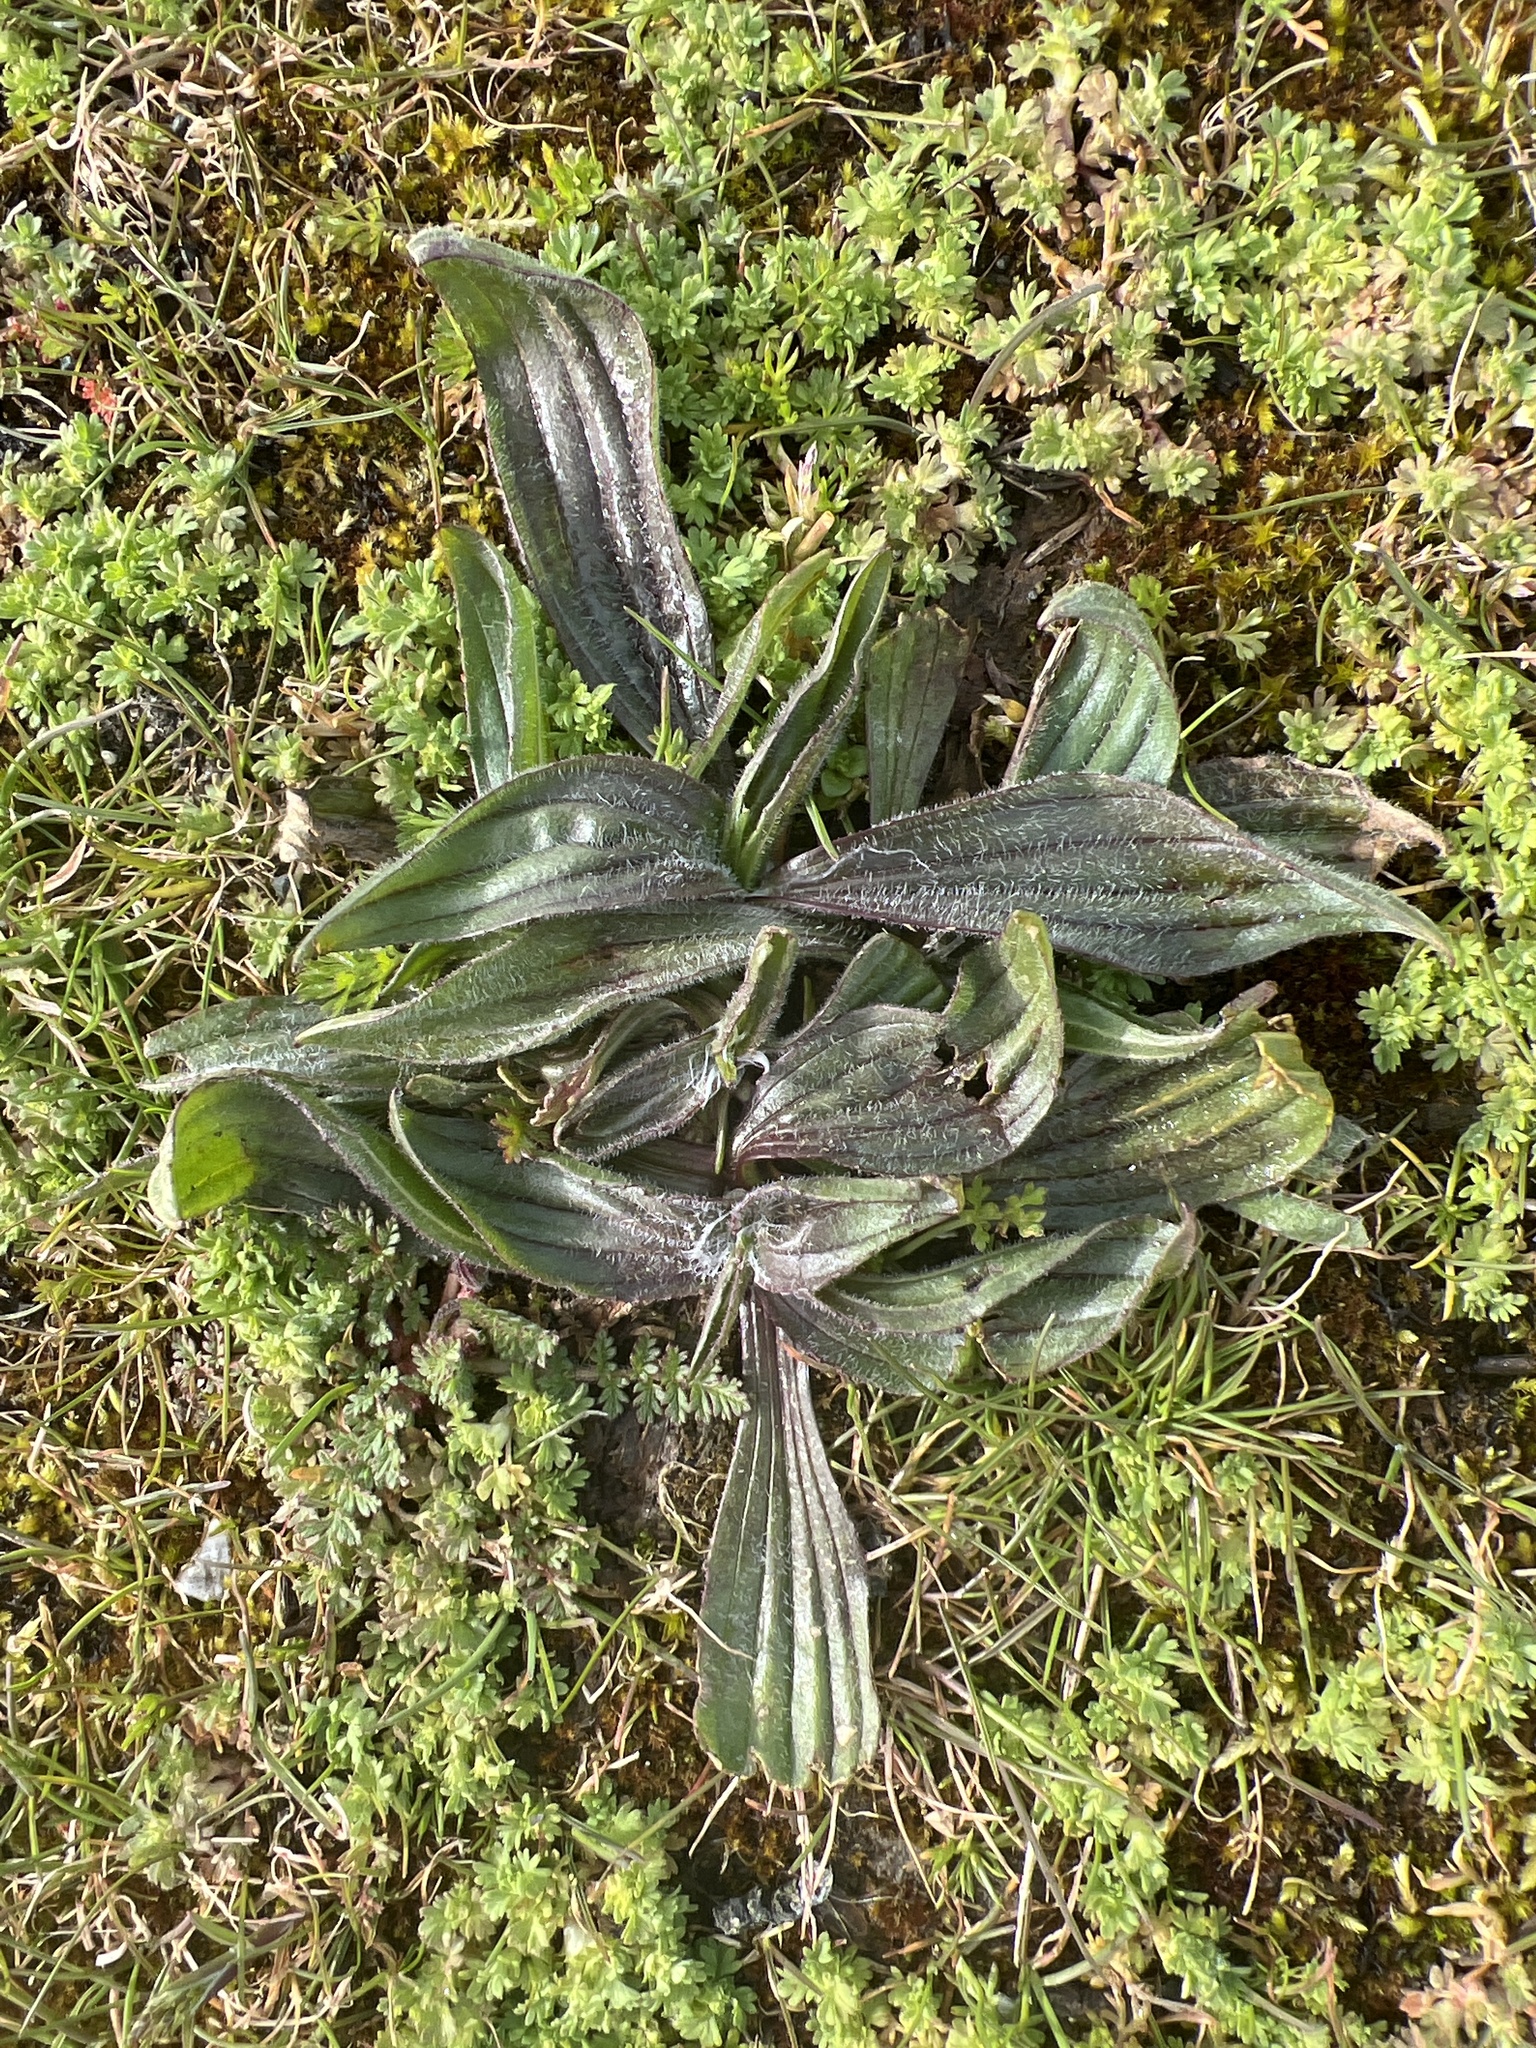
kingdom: Plantae
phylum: Tracheophyta
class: Magnoliopsida
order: Lamiales
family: Plantaginaceae
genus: Plantago
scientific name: Plantago lanceolata
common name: Ribwort plantain
